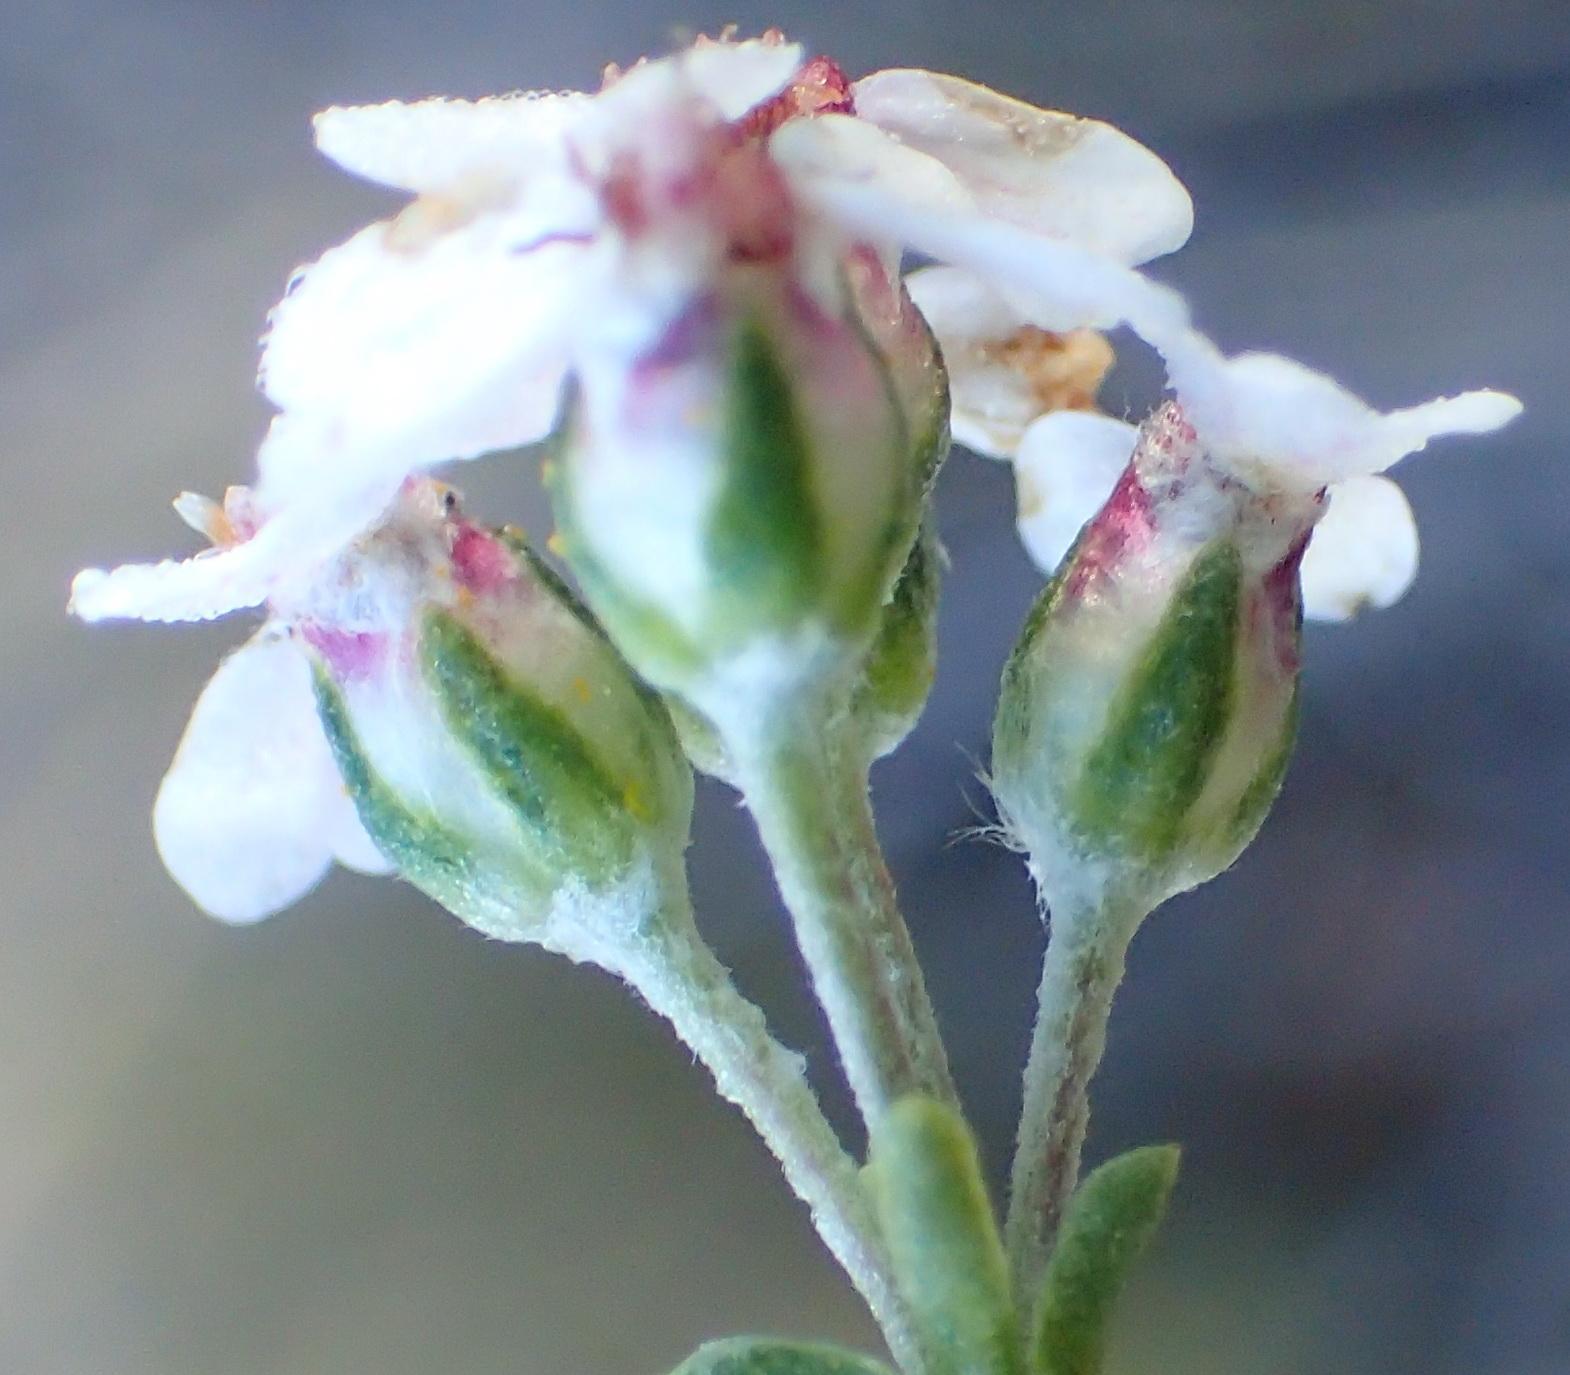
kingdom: Plantae
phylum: Tracheophyta
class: Magnoliopsida
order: Asterales
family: Asteraceae
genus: Eriocephalus
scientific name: Eriocephalus brevifolius
